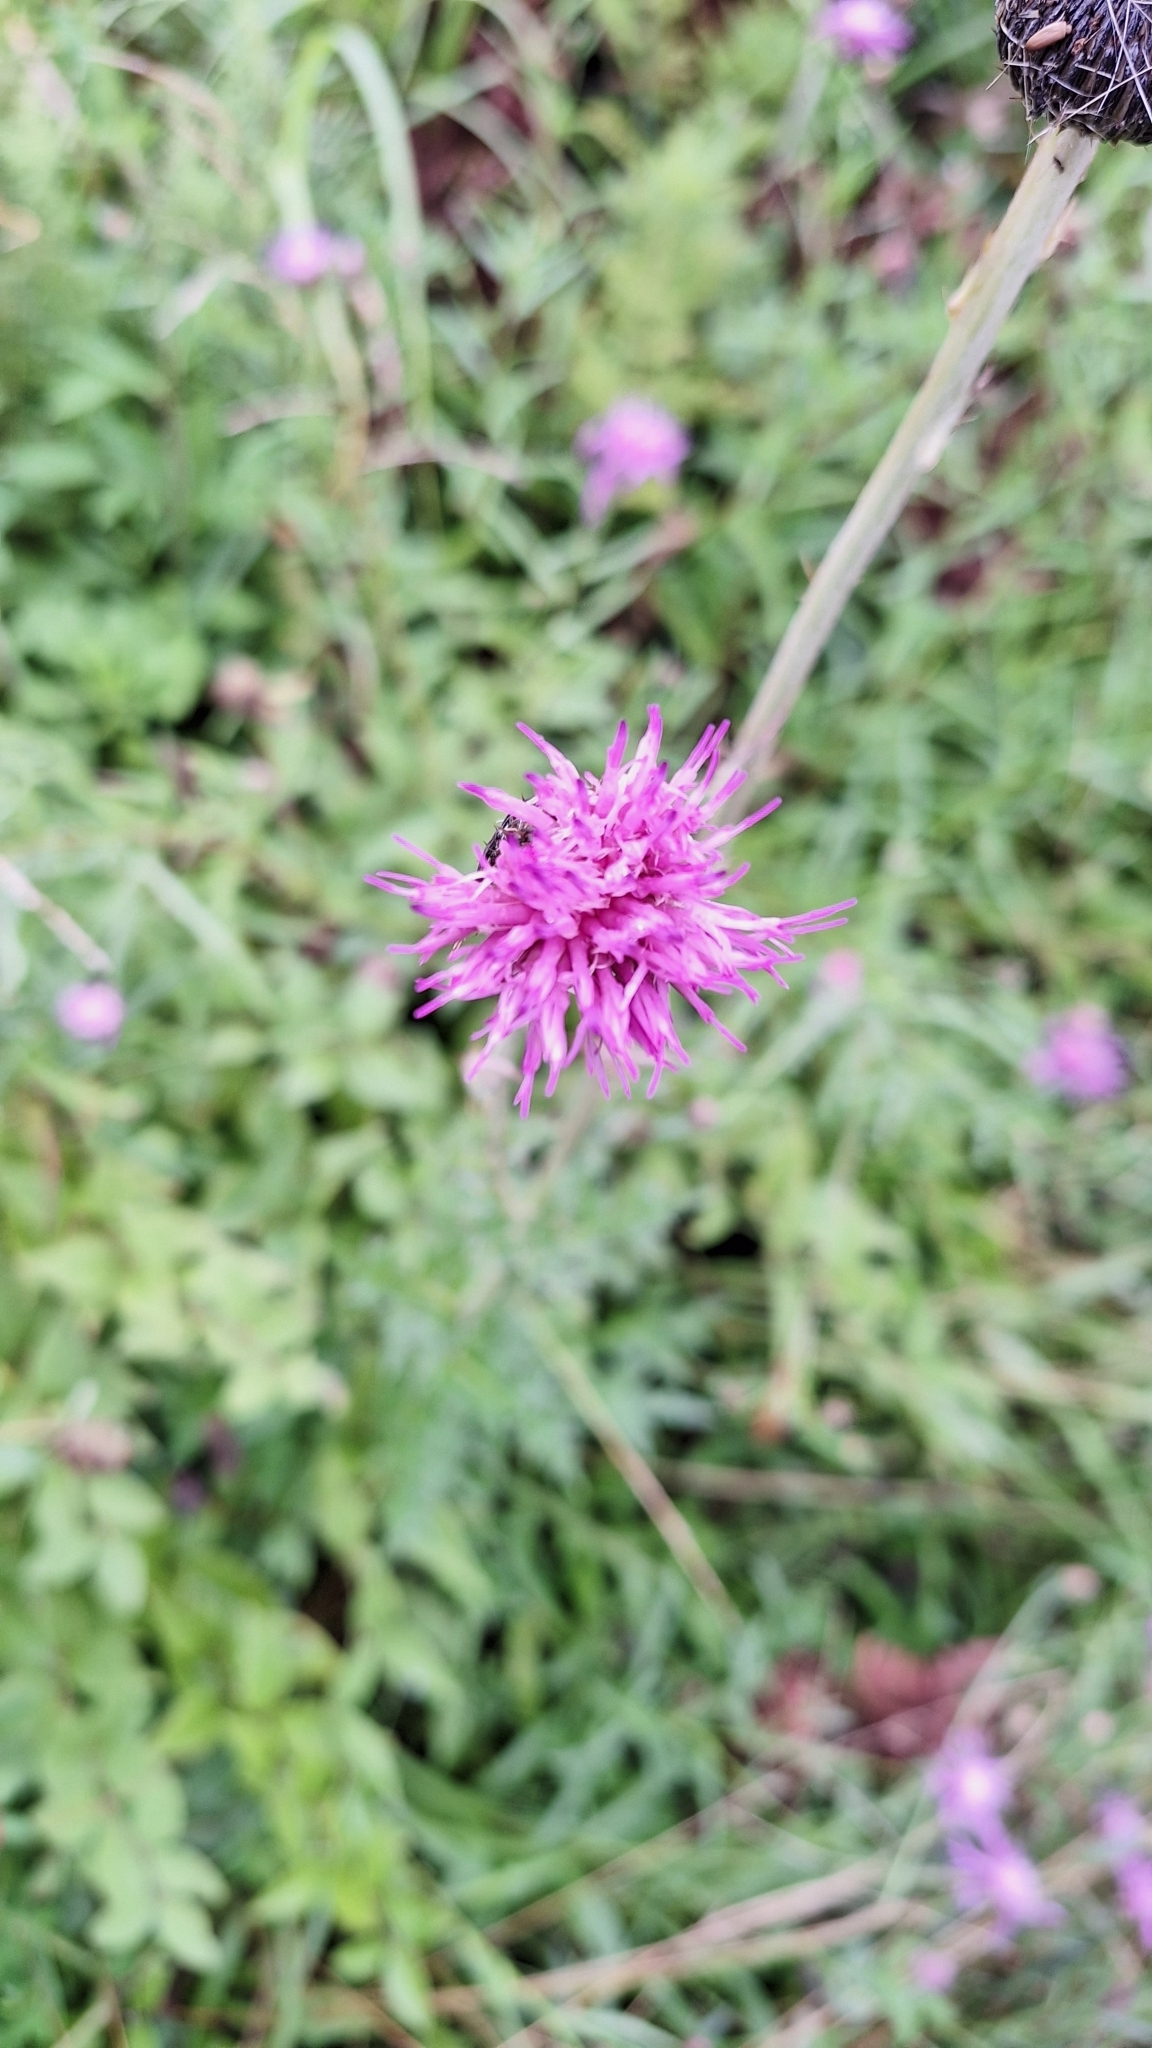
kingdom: Plantae
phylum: Tracheophyta
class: Magnoliopsida
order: Asterales
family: Asteraceae
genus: Cirsium
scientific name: Cirsium maackii
